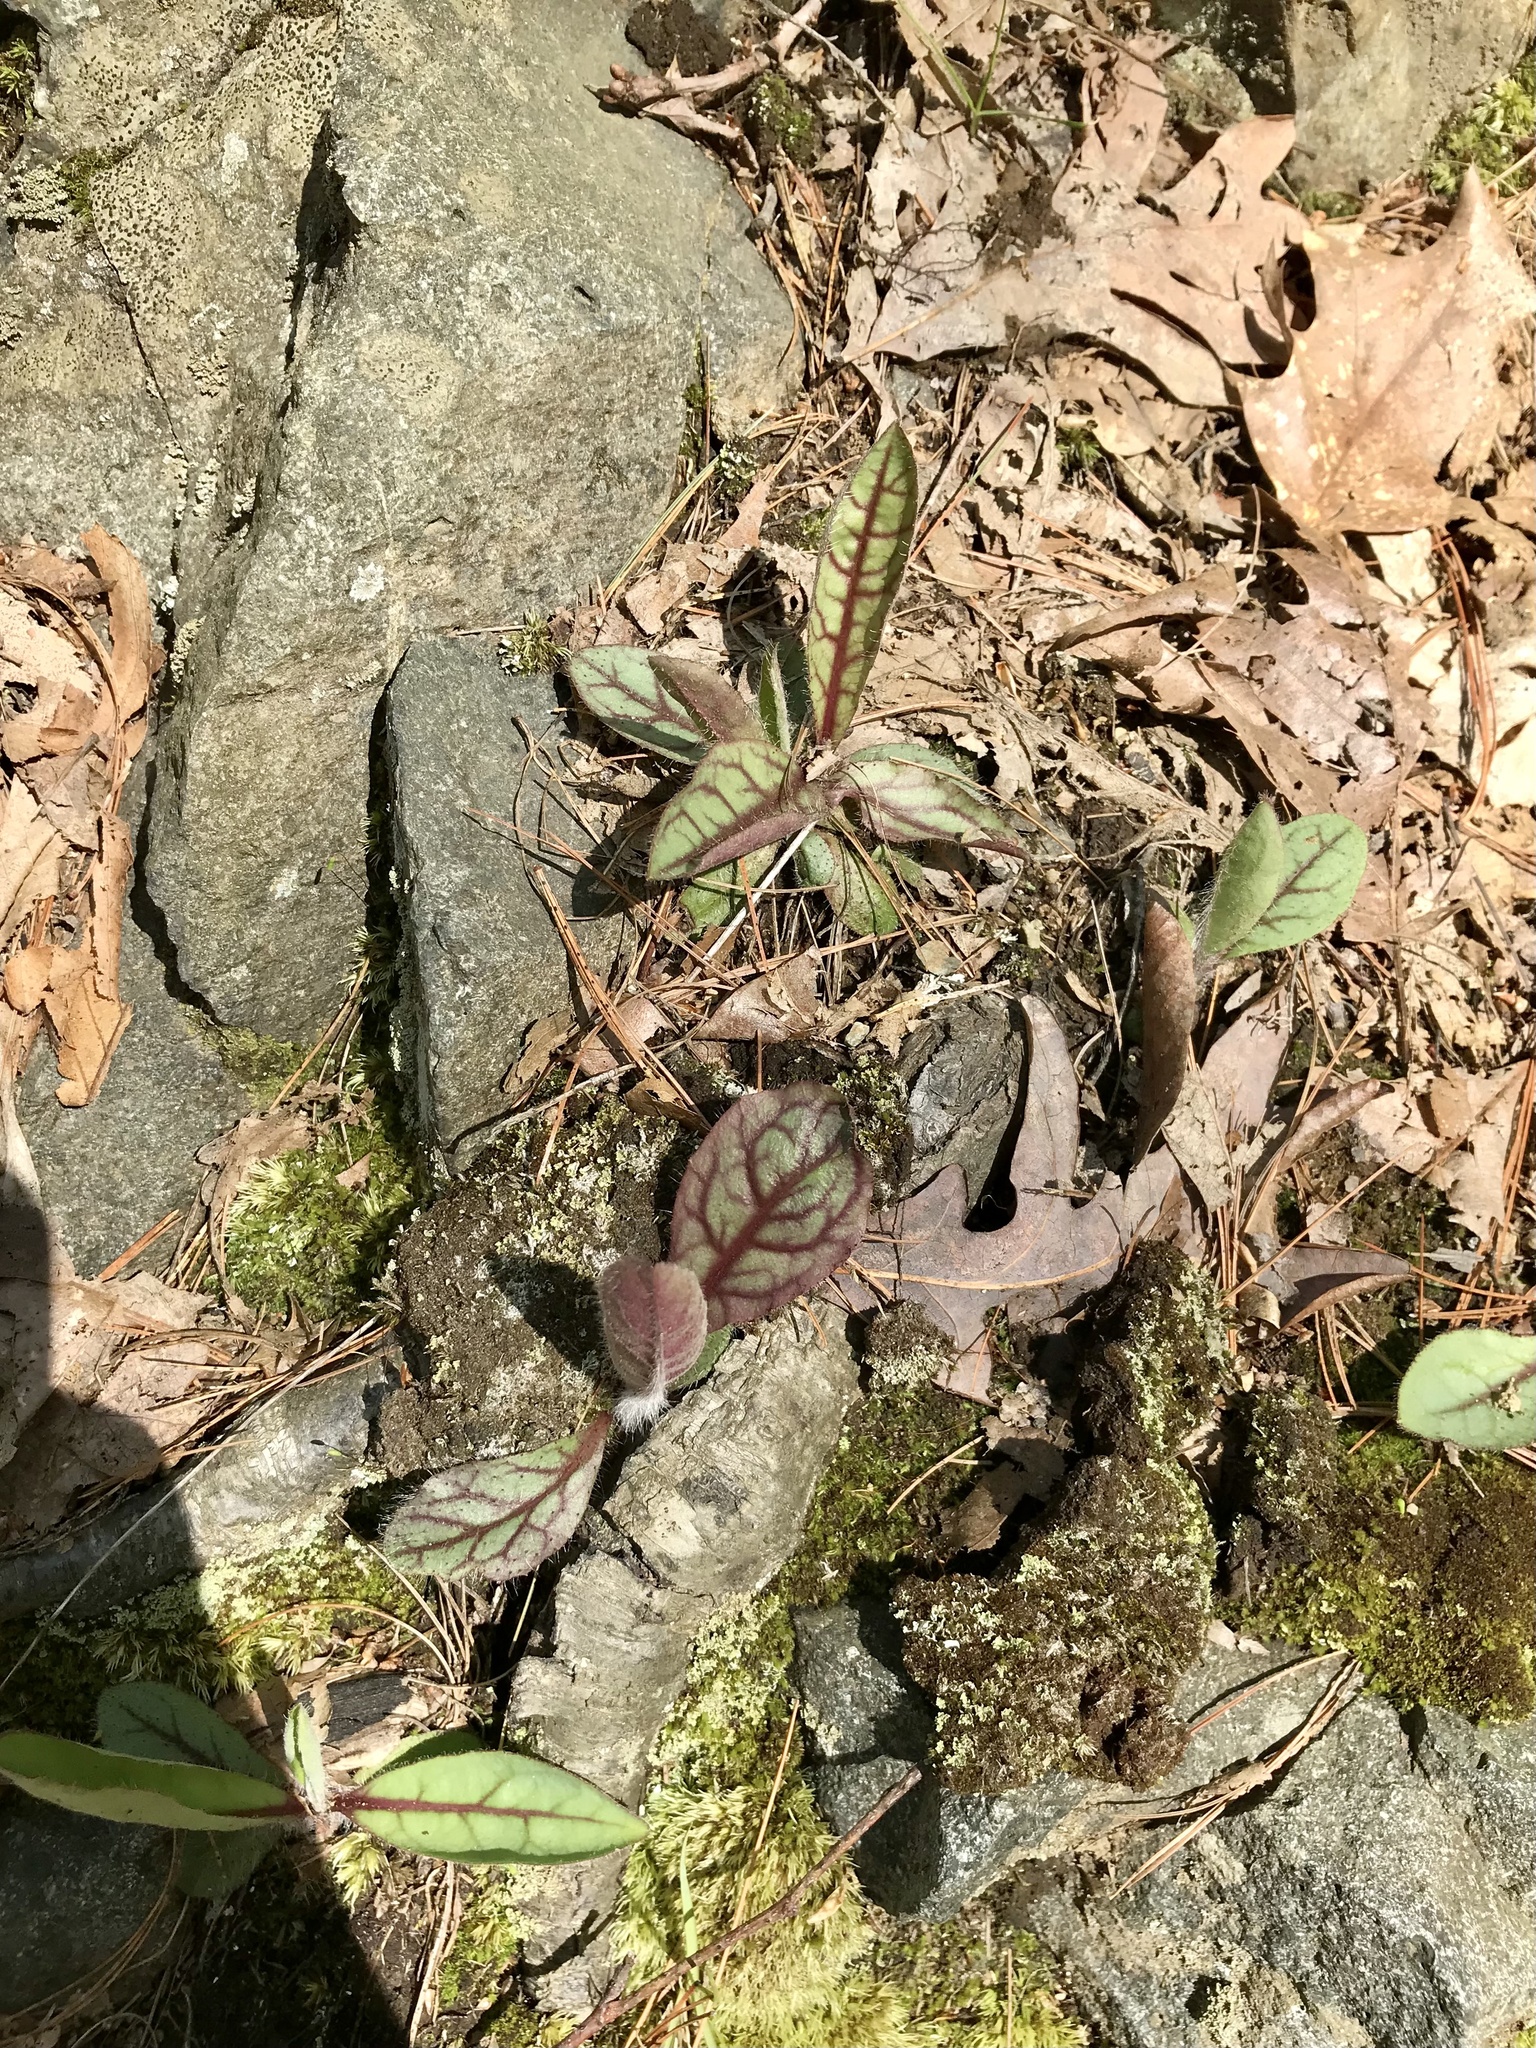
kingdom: Plantae
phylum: Tracheophyta
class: Magnoliopsida
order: Asterales
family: Asteraceae
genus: Hieracium
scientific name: Hieracium venosum
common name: Rattlesnake hawkweed
